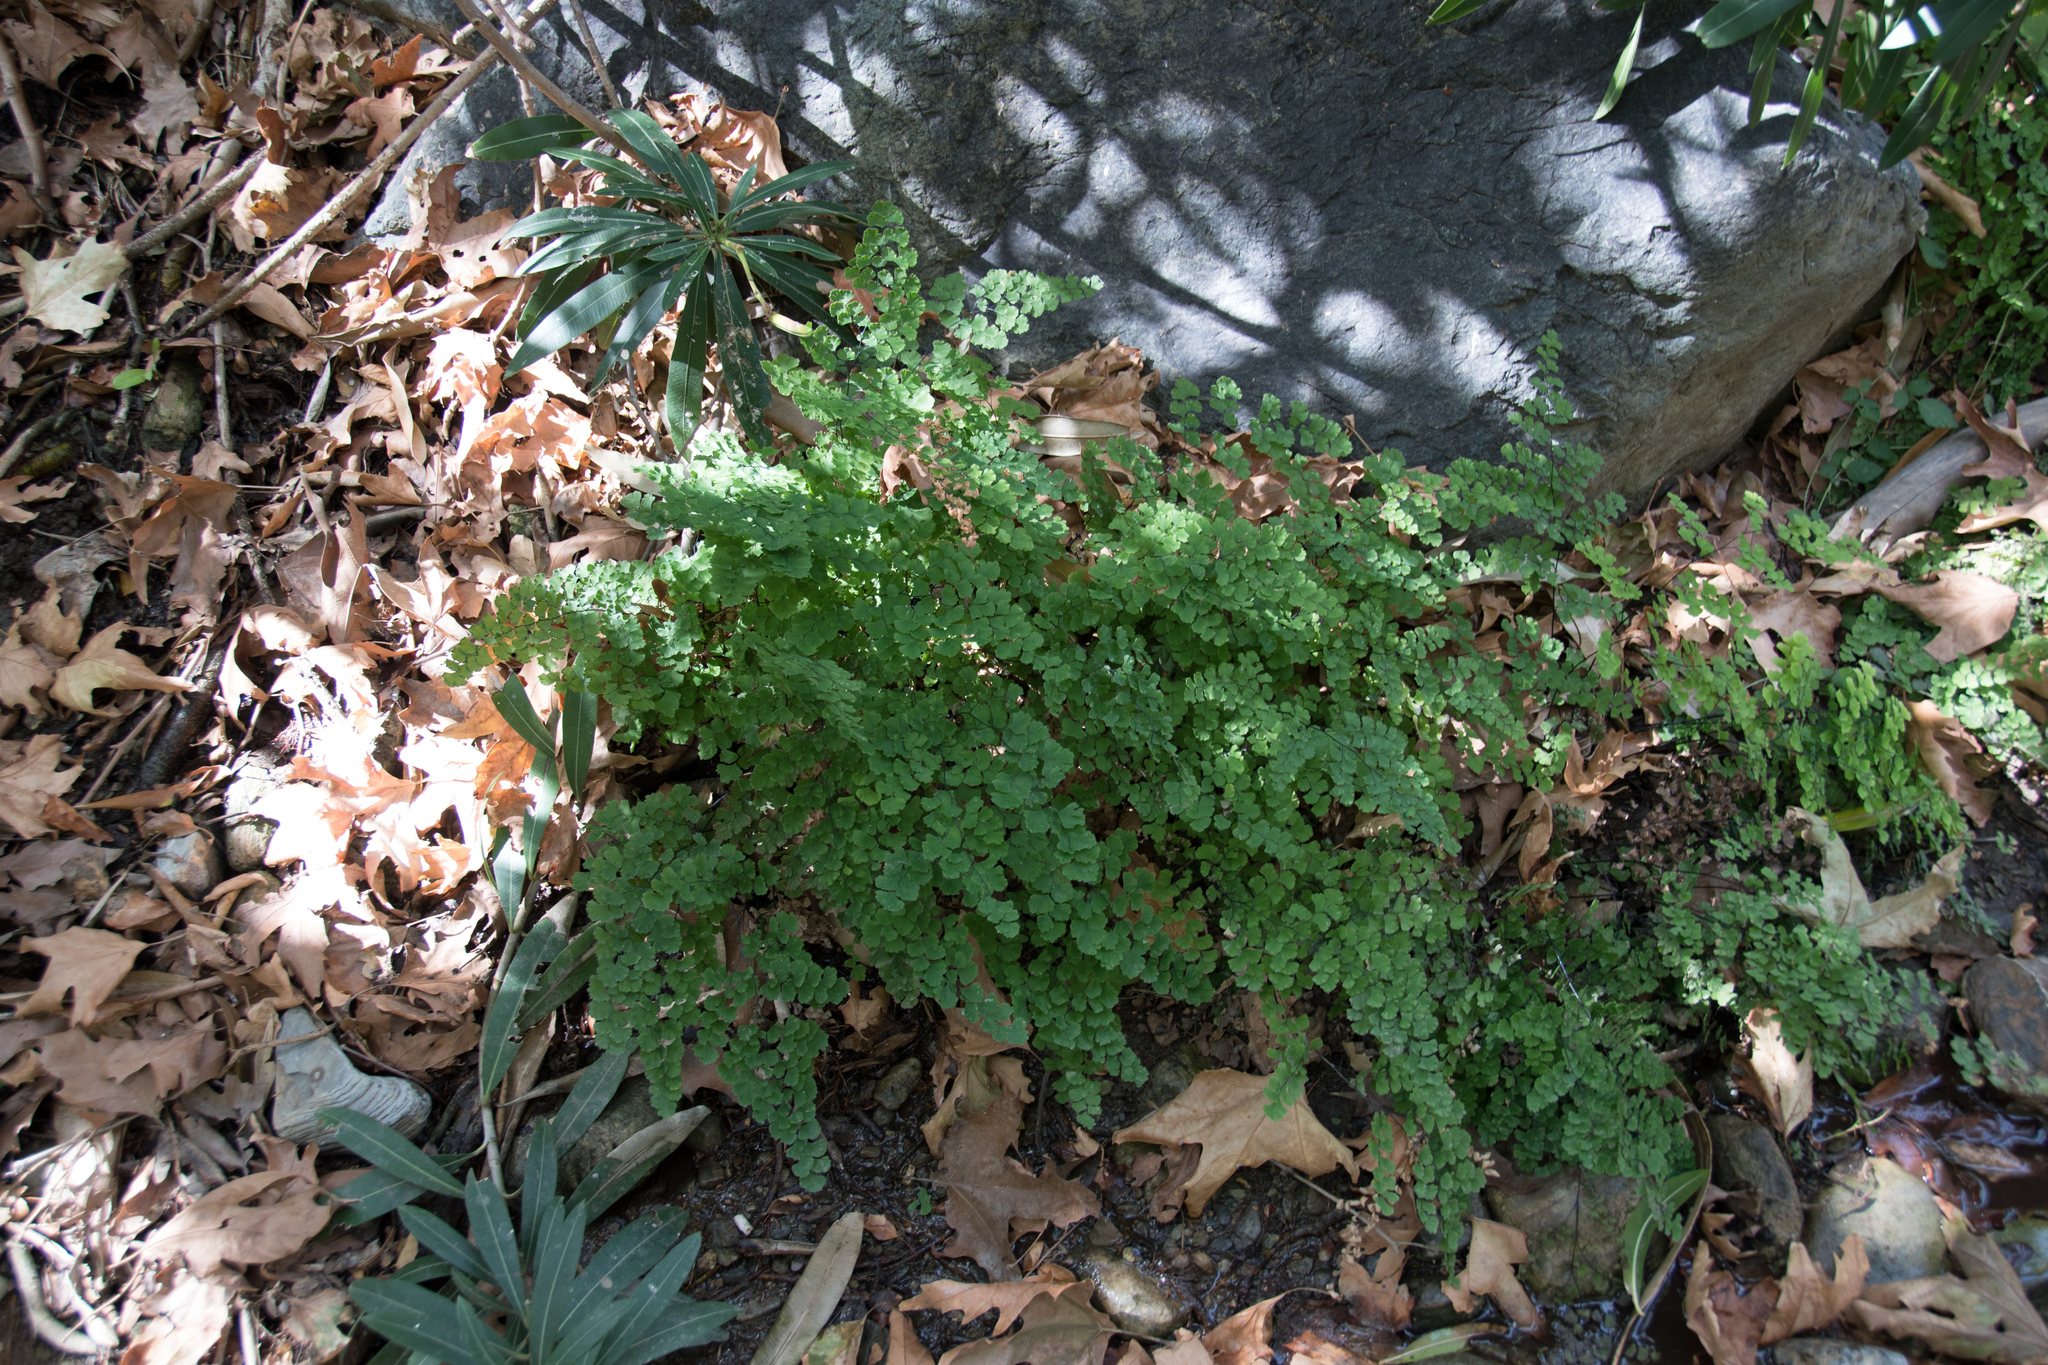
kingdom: Plantae
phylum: Tracheophyta
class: Polypodiopsida
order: Polypodiales
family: Pteridaceae
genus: Adiantum
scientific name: Adiantum capillus-veneris
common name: Maidenhair fern
